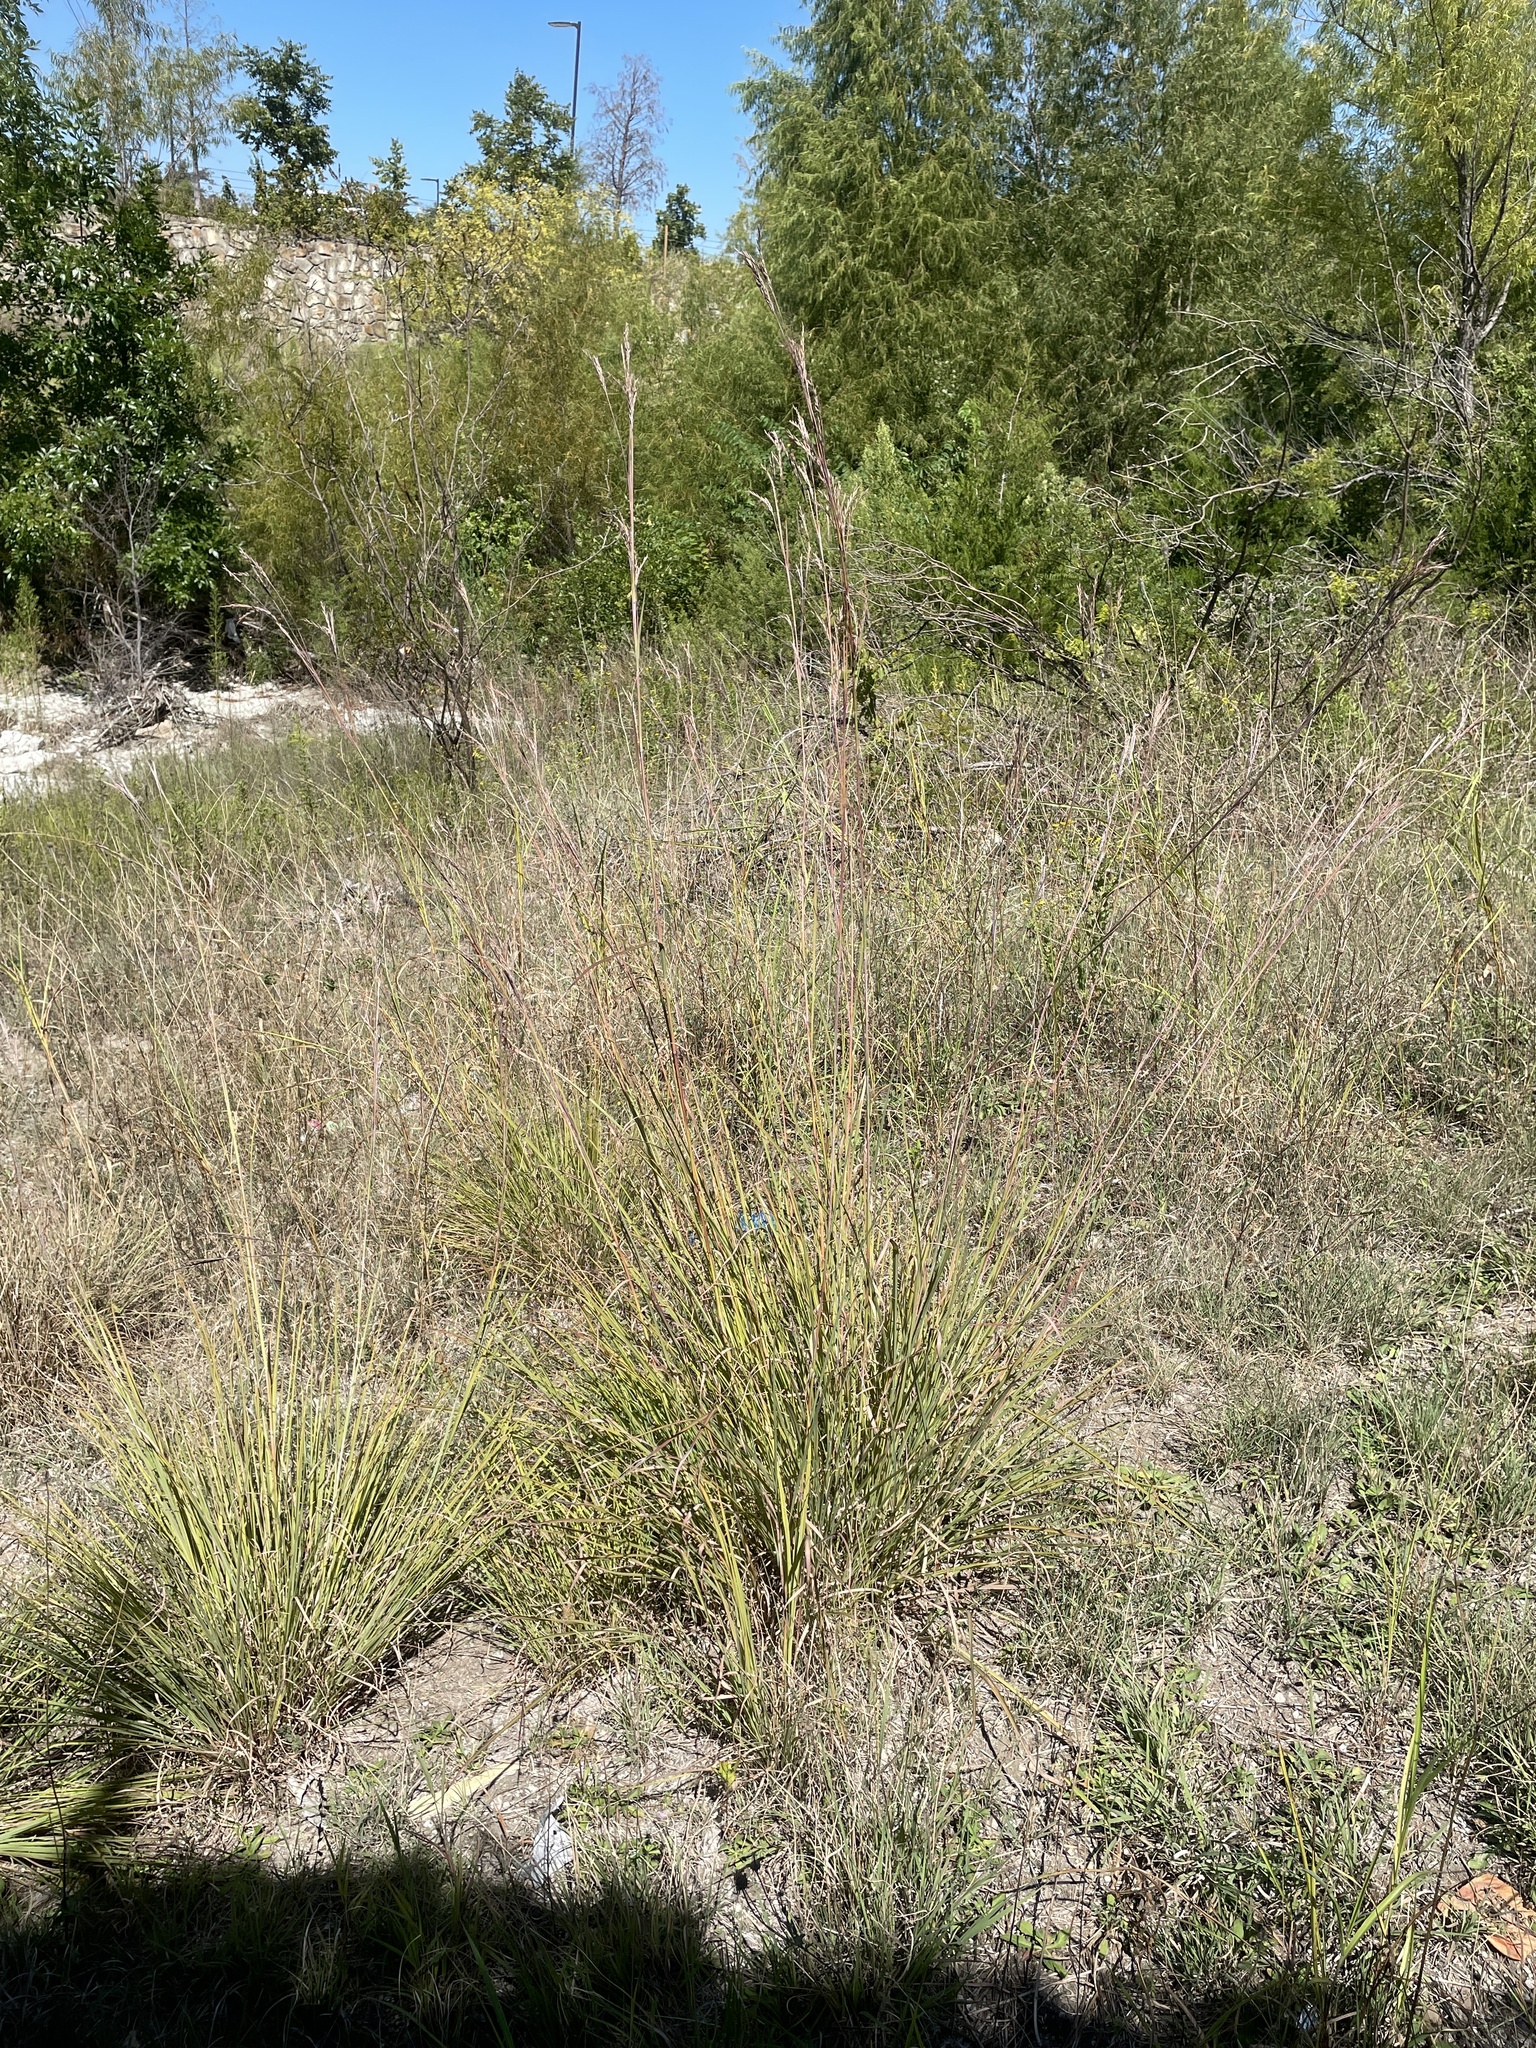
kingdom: Plantae
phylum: Tracheophyta
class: Liliopsida
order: Poales
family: Poaceae
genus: Andropogon
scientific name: Andropogon gerardi
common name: Big bluestem
